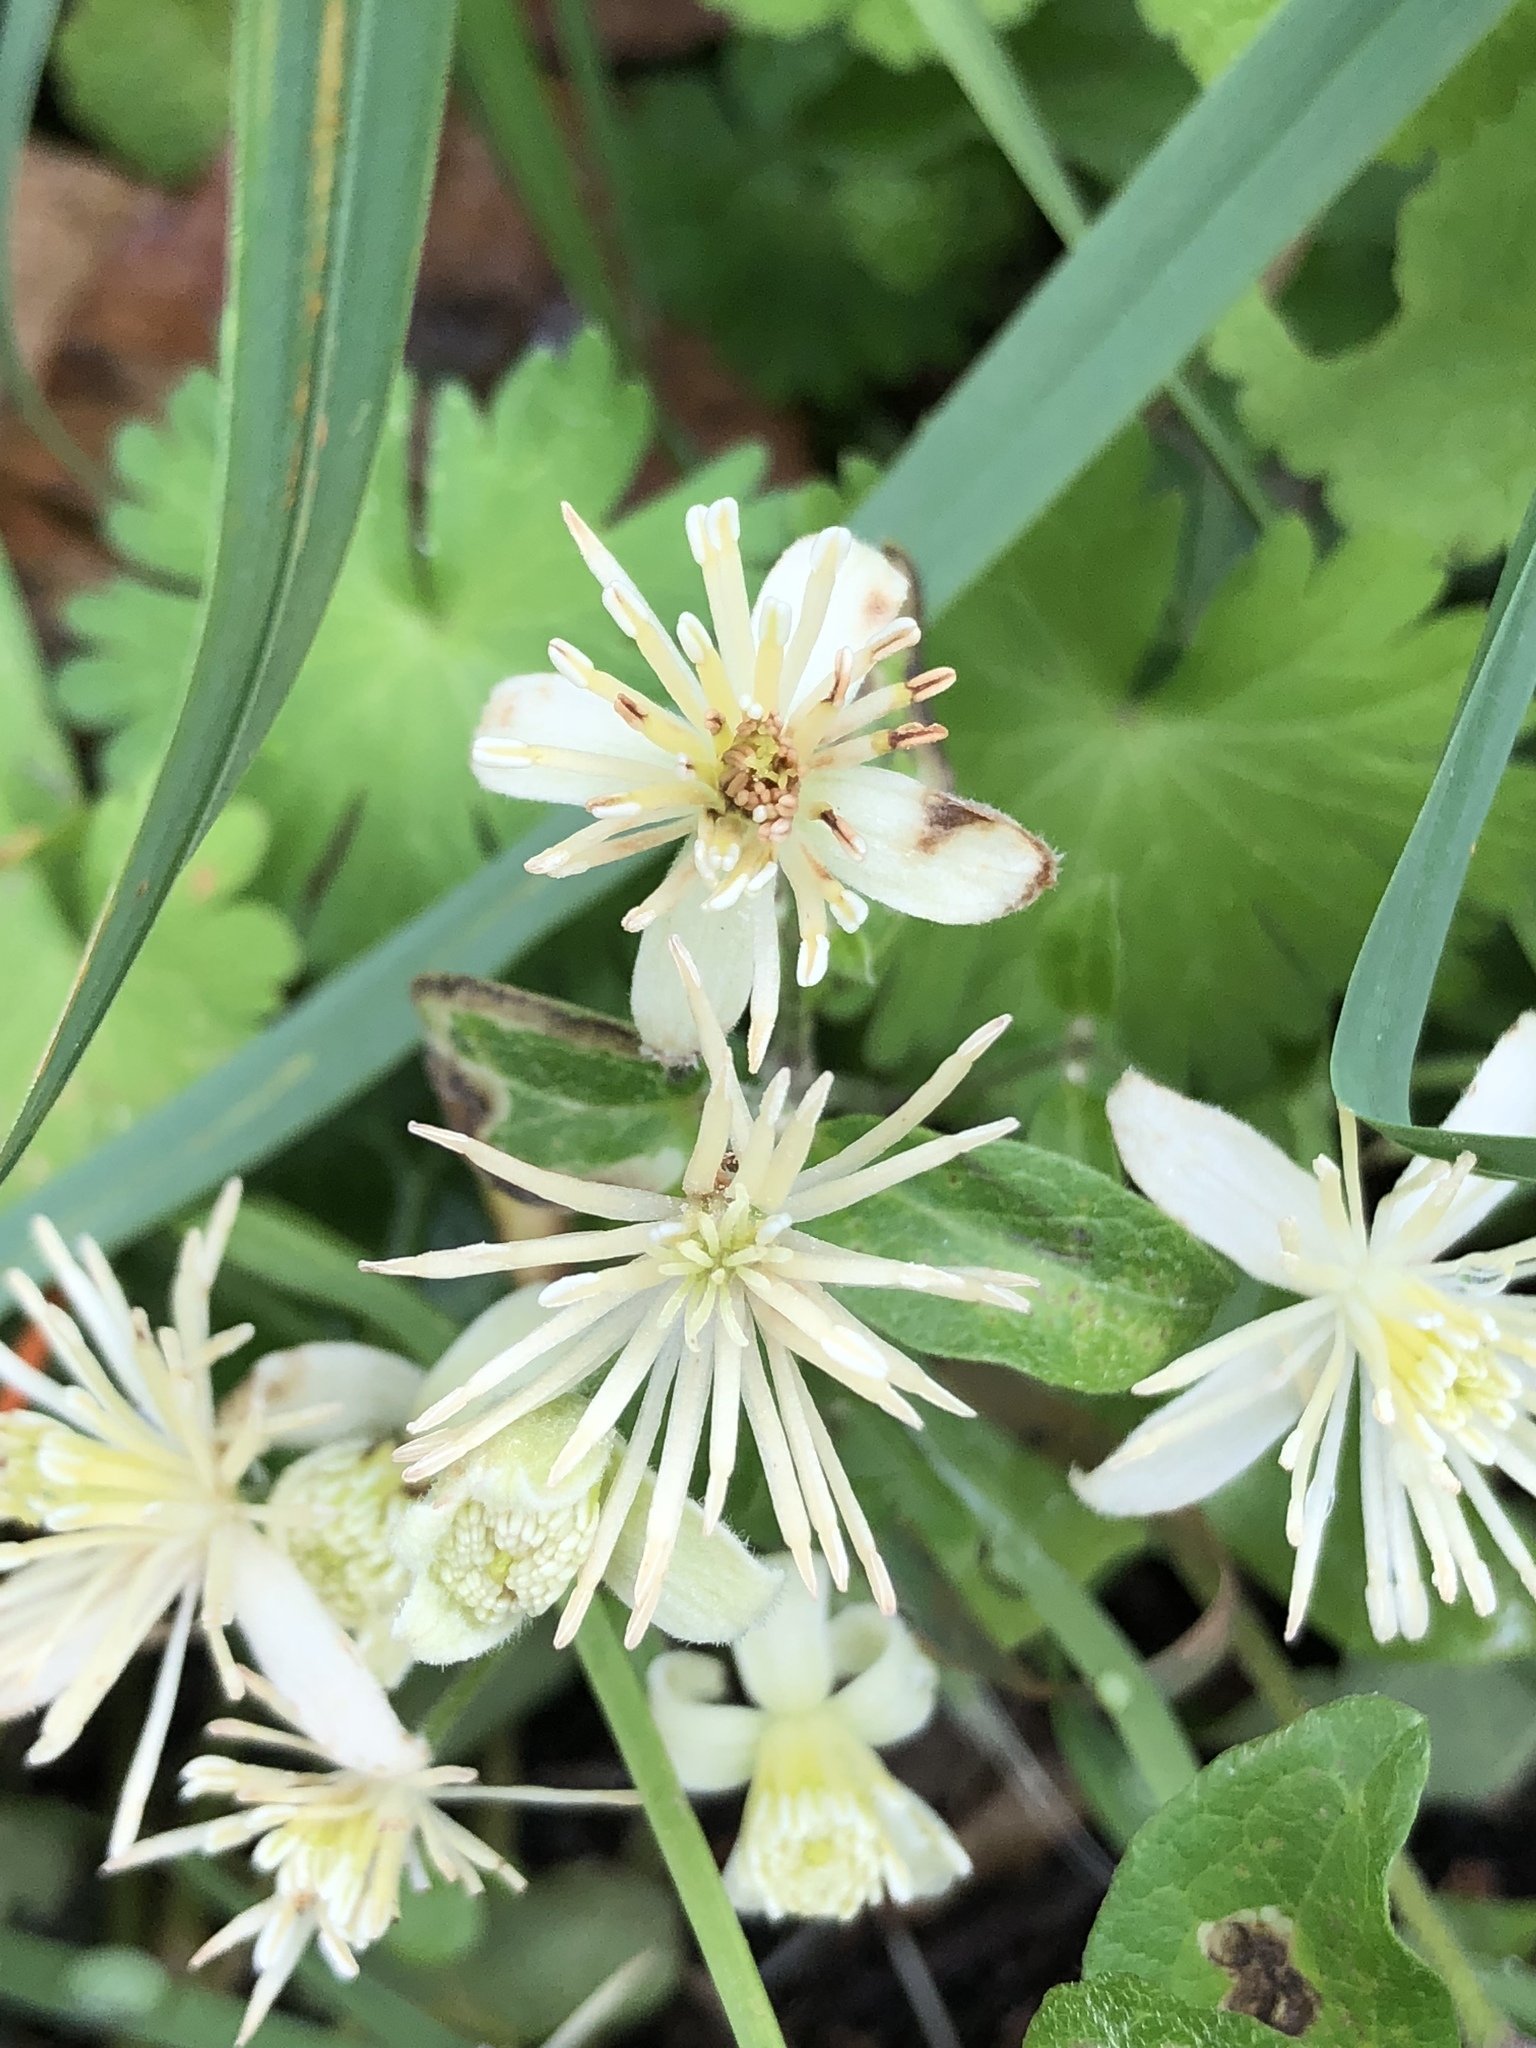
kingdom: Plantae
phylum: Tracheophyta
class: Magnoliopsida
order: Ranunculales
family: Ranunculaceae
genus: Clematis
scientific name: Clematis vitalba
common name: Evergreen clematis
